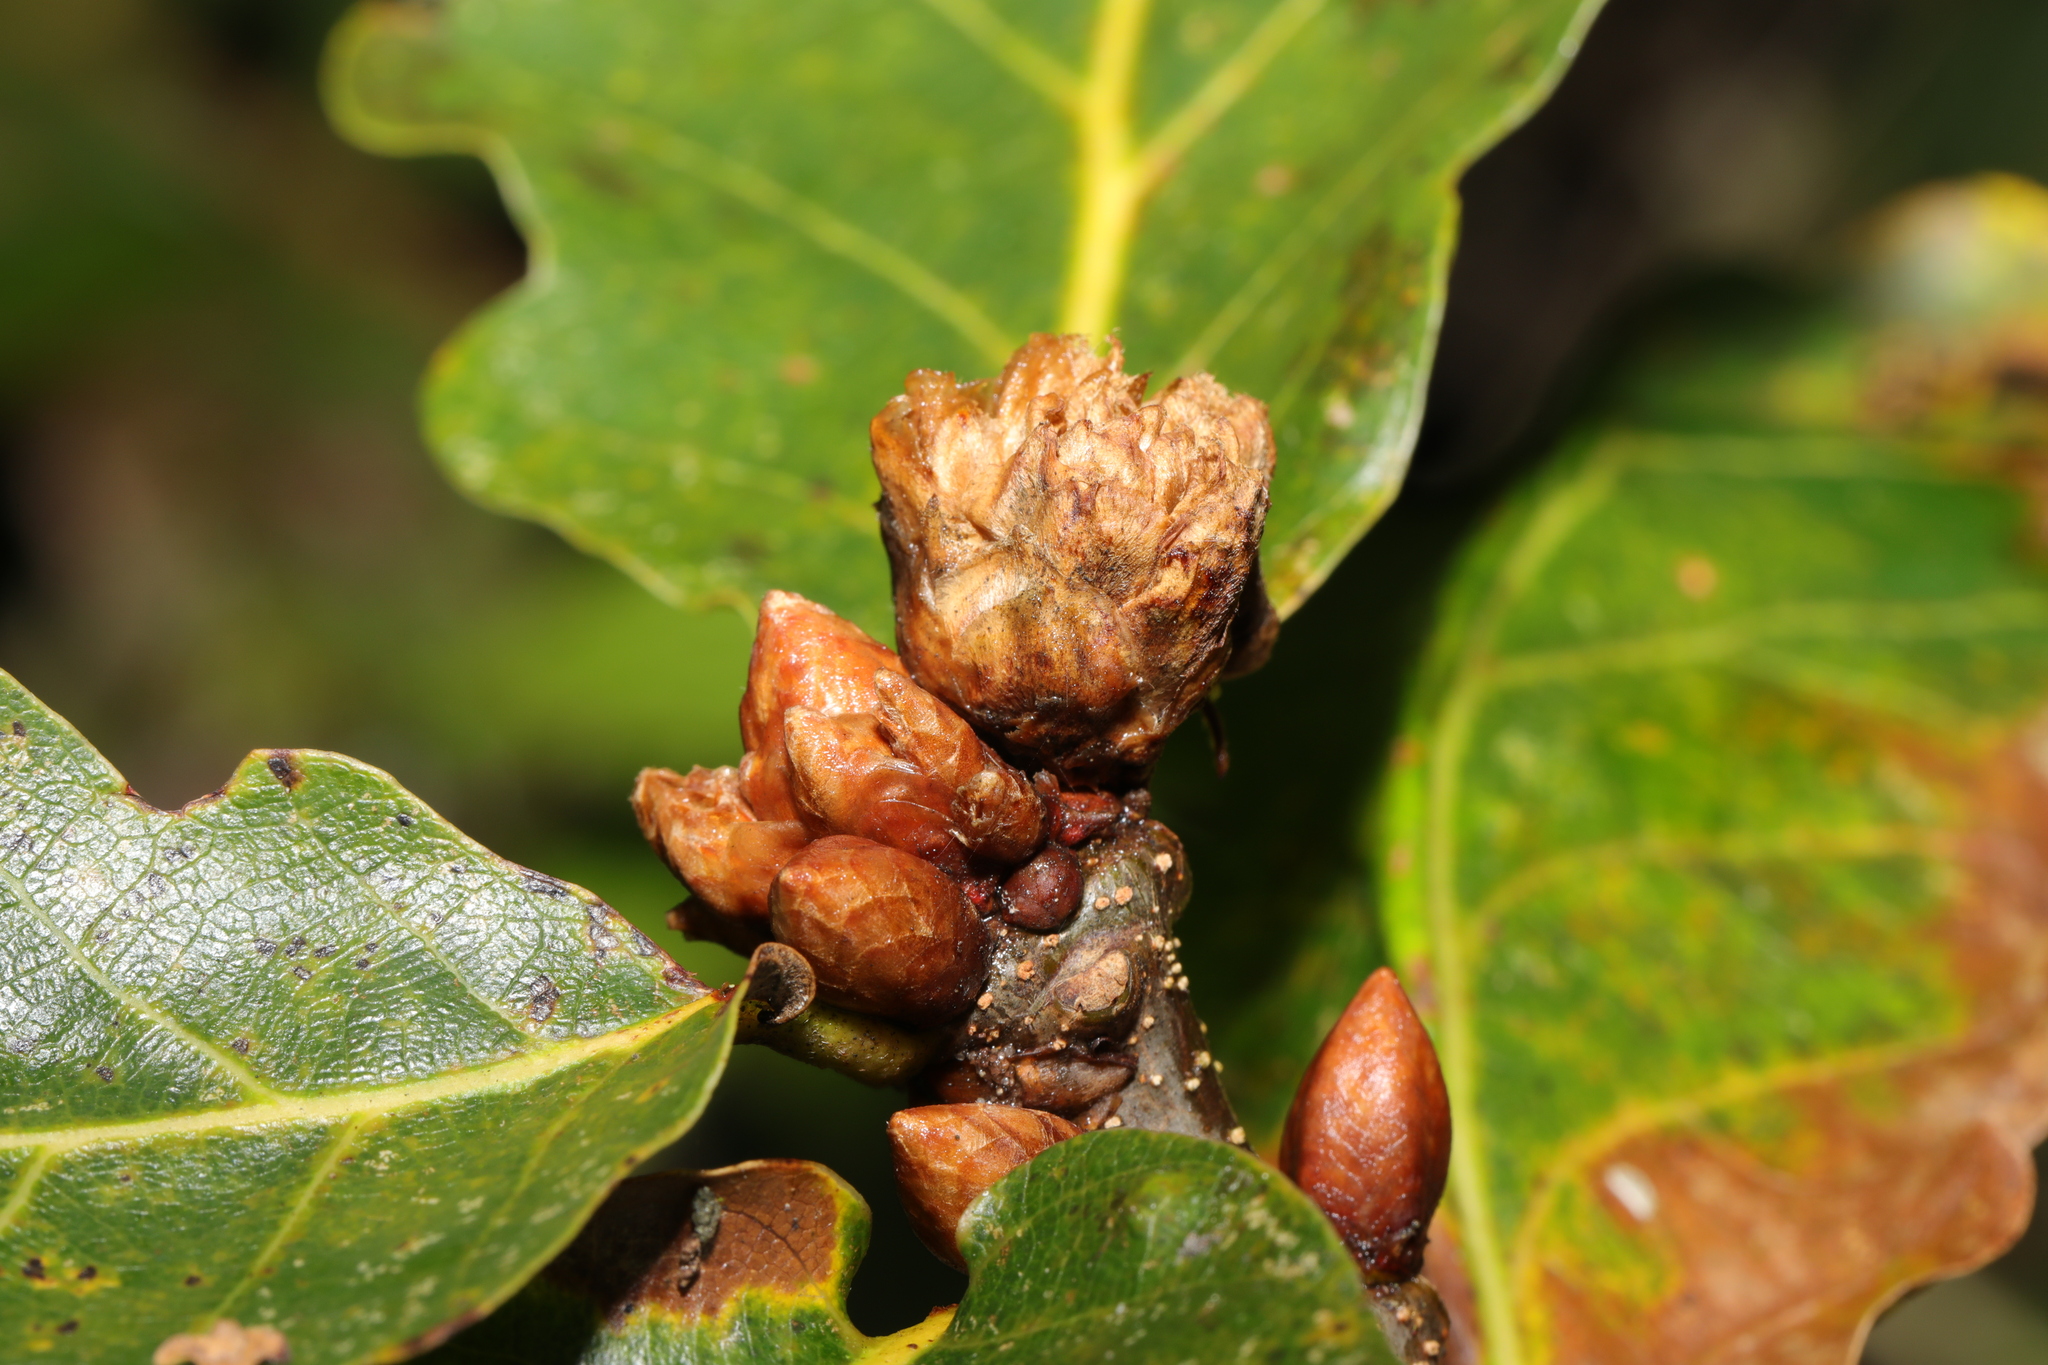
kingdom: Animalia
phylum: Arthropoda
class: Insecta
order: Hymenoptera
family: Cynipidae
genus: Andricus
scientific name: Andricus foecundatrix
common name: Artichoke gall
